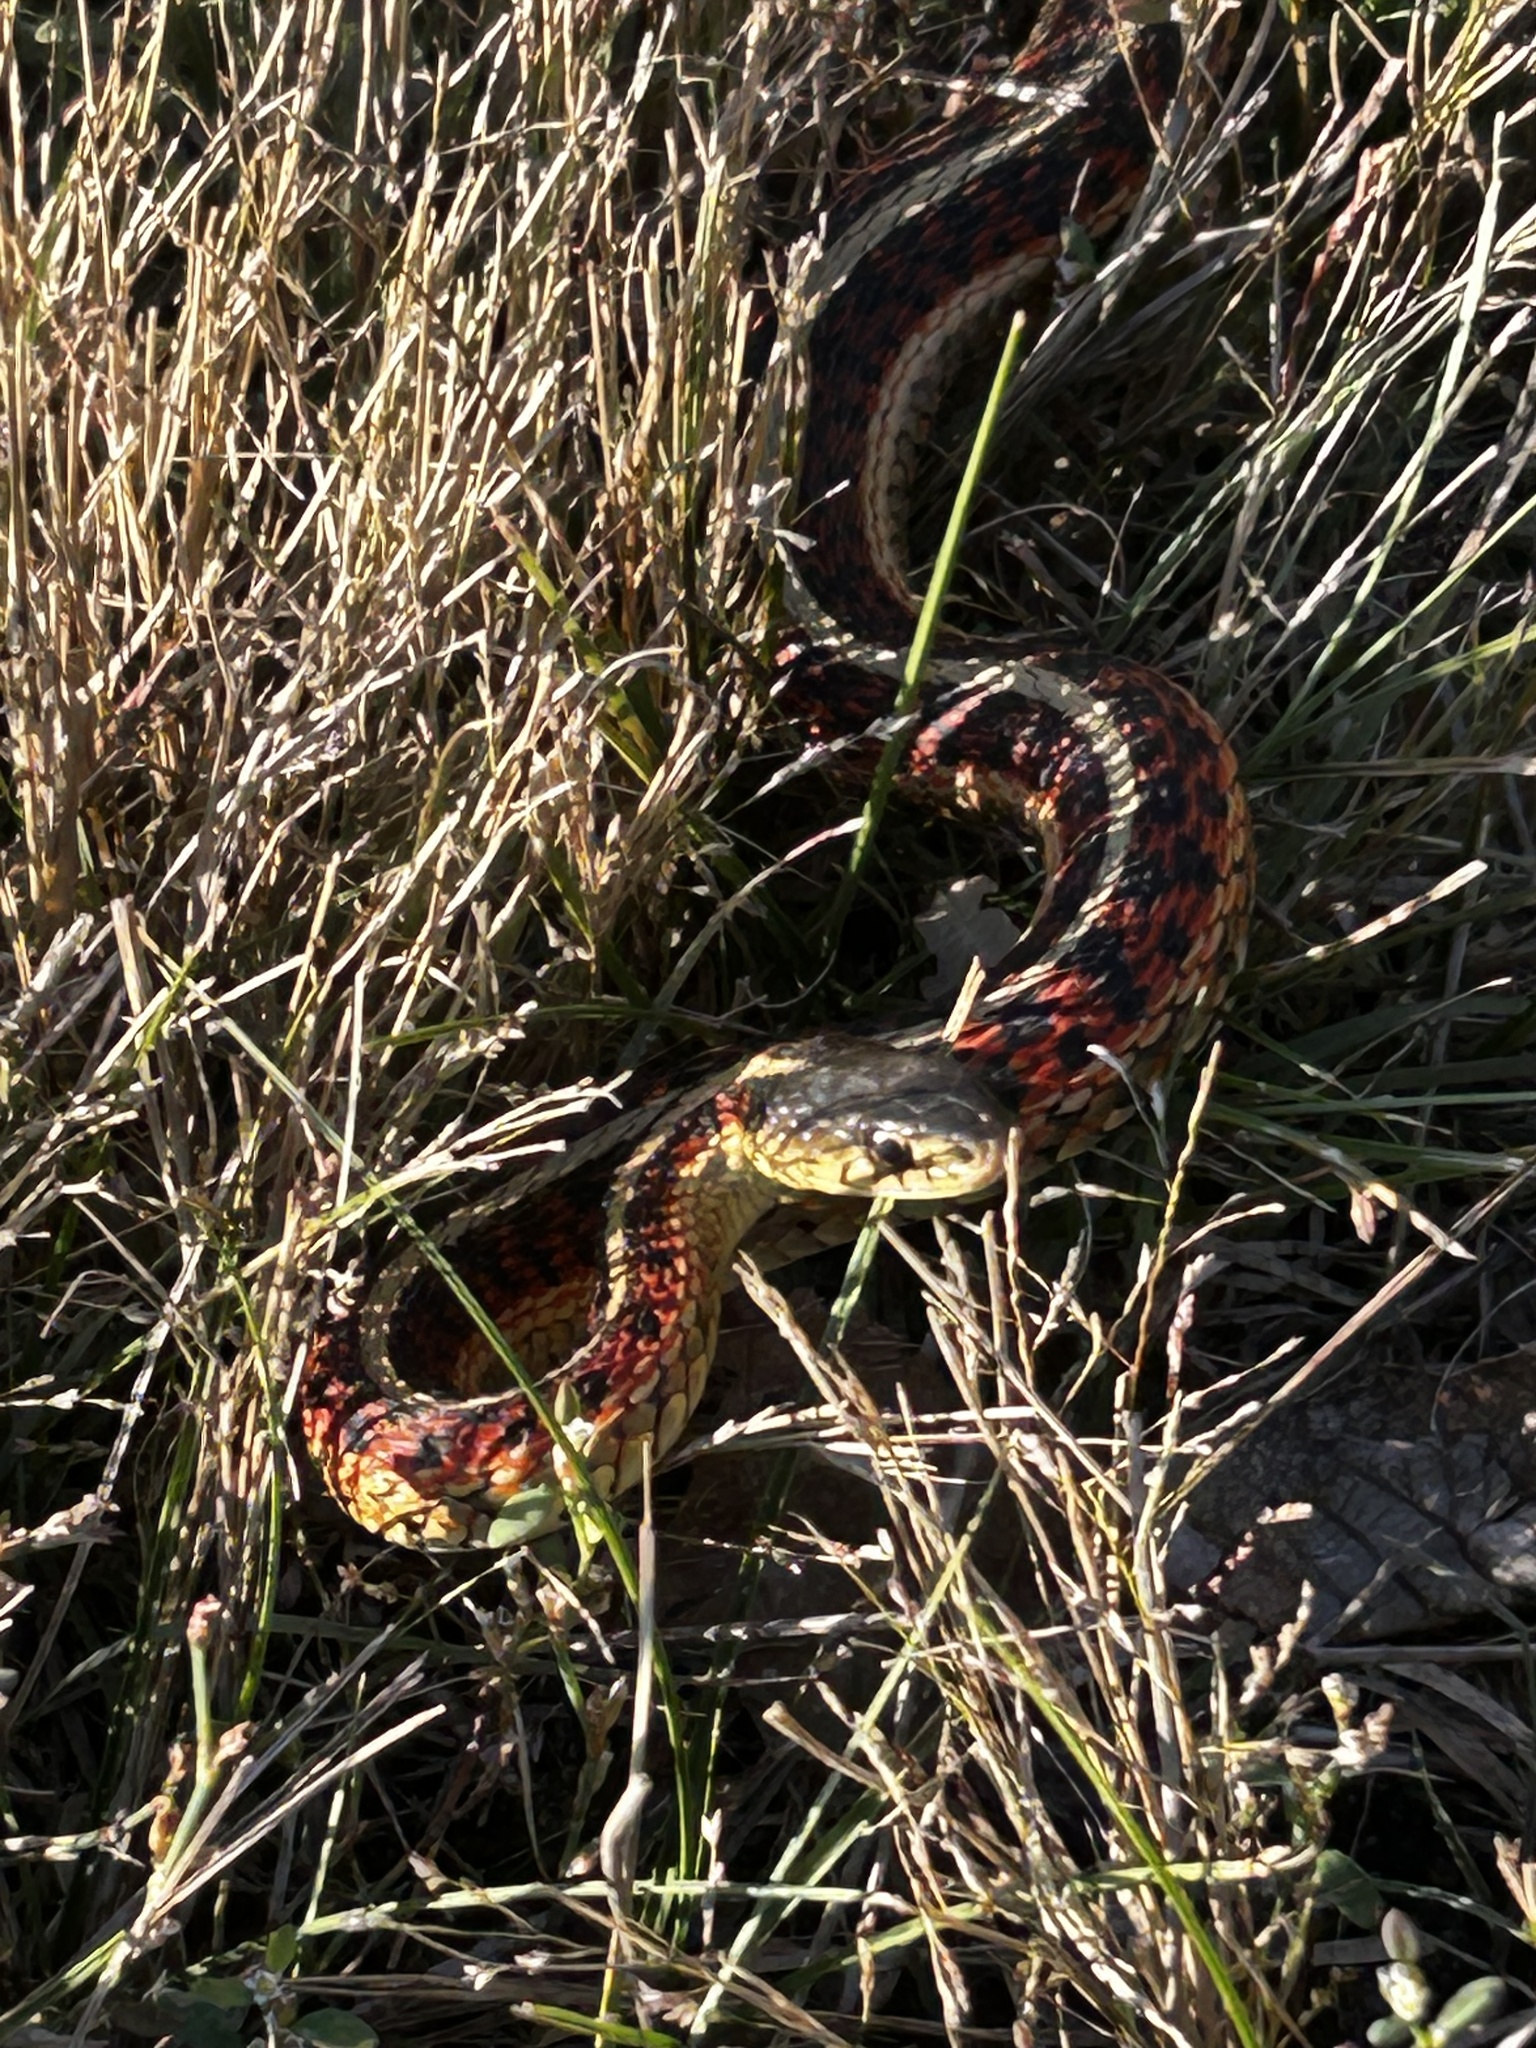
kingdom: Animalia
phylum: Chordata
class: Squamata
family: Colubridae
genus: Thamnophis
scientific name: Thamnophis sirtalis
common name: Common garter snake
